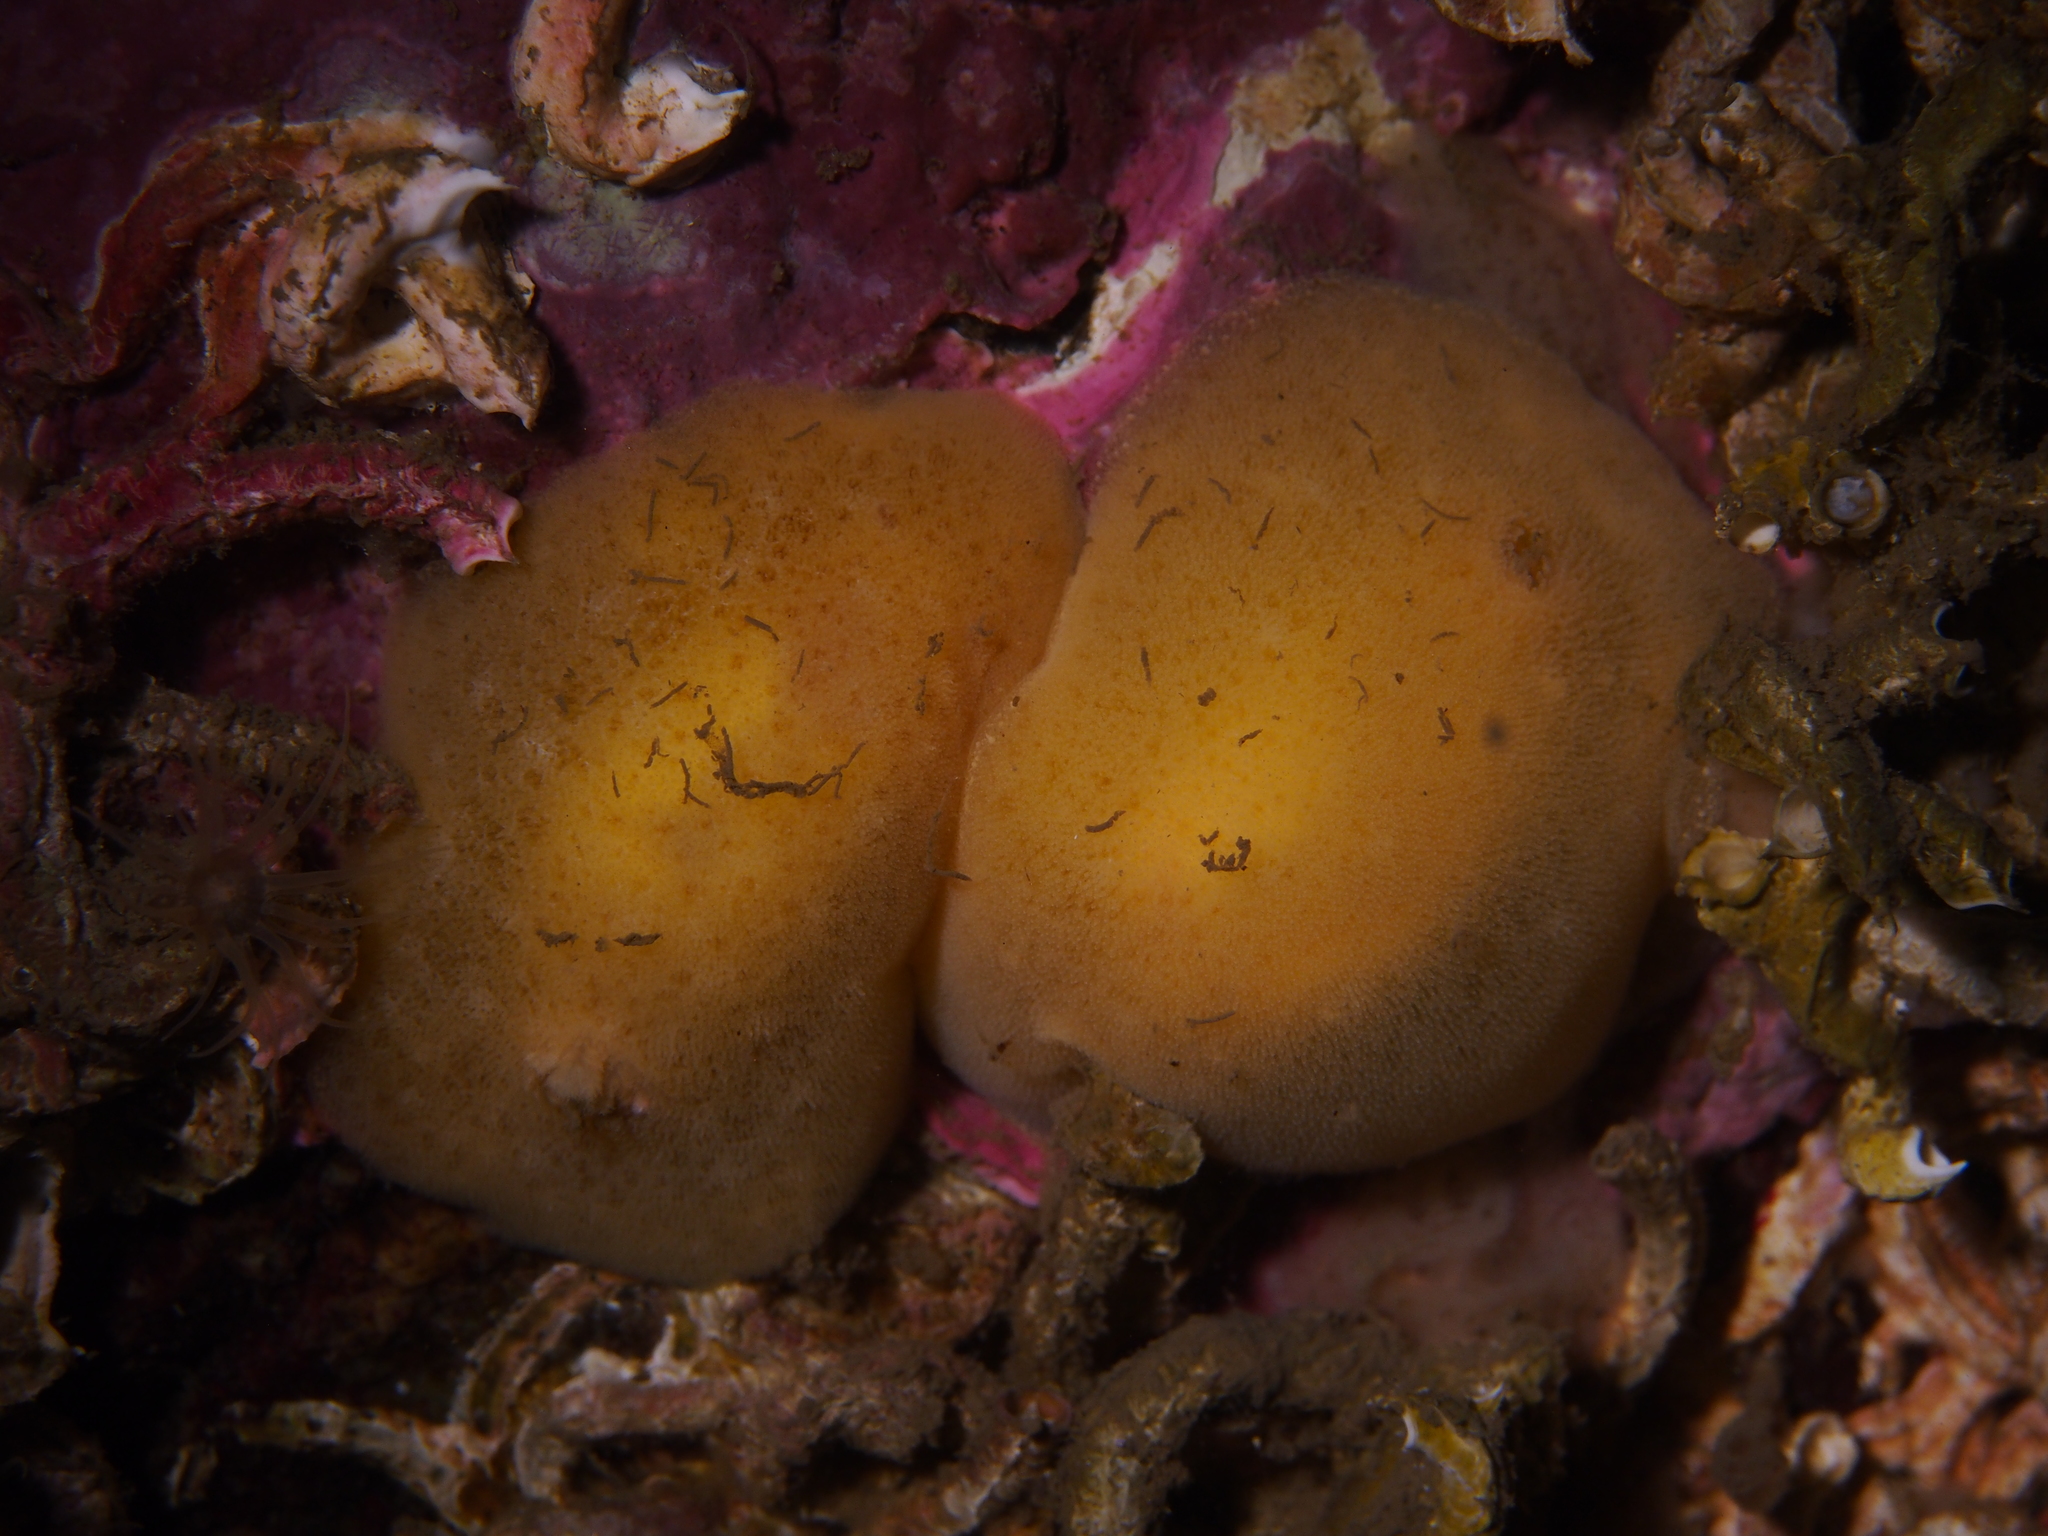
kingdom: Animalia
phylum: Mollusca
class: Gastropoda
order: Nudibranchia
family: Discodorididae
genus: Jorunna
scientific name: Jorunna tomentosa
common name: Grey sea slug
